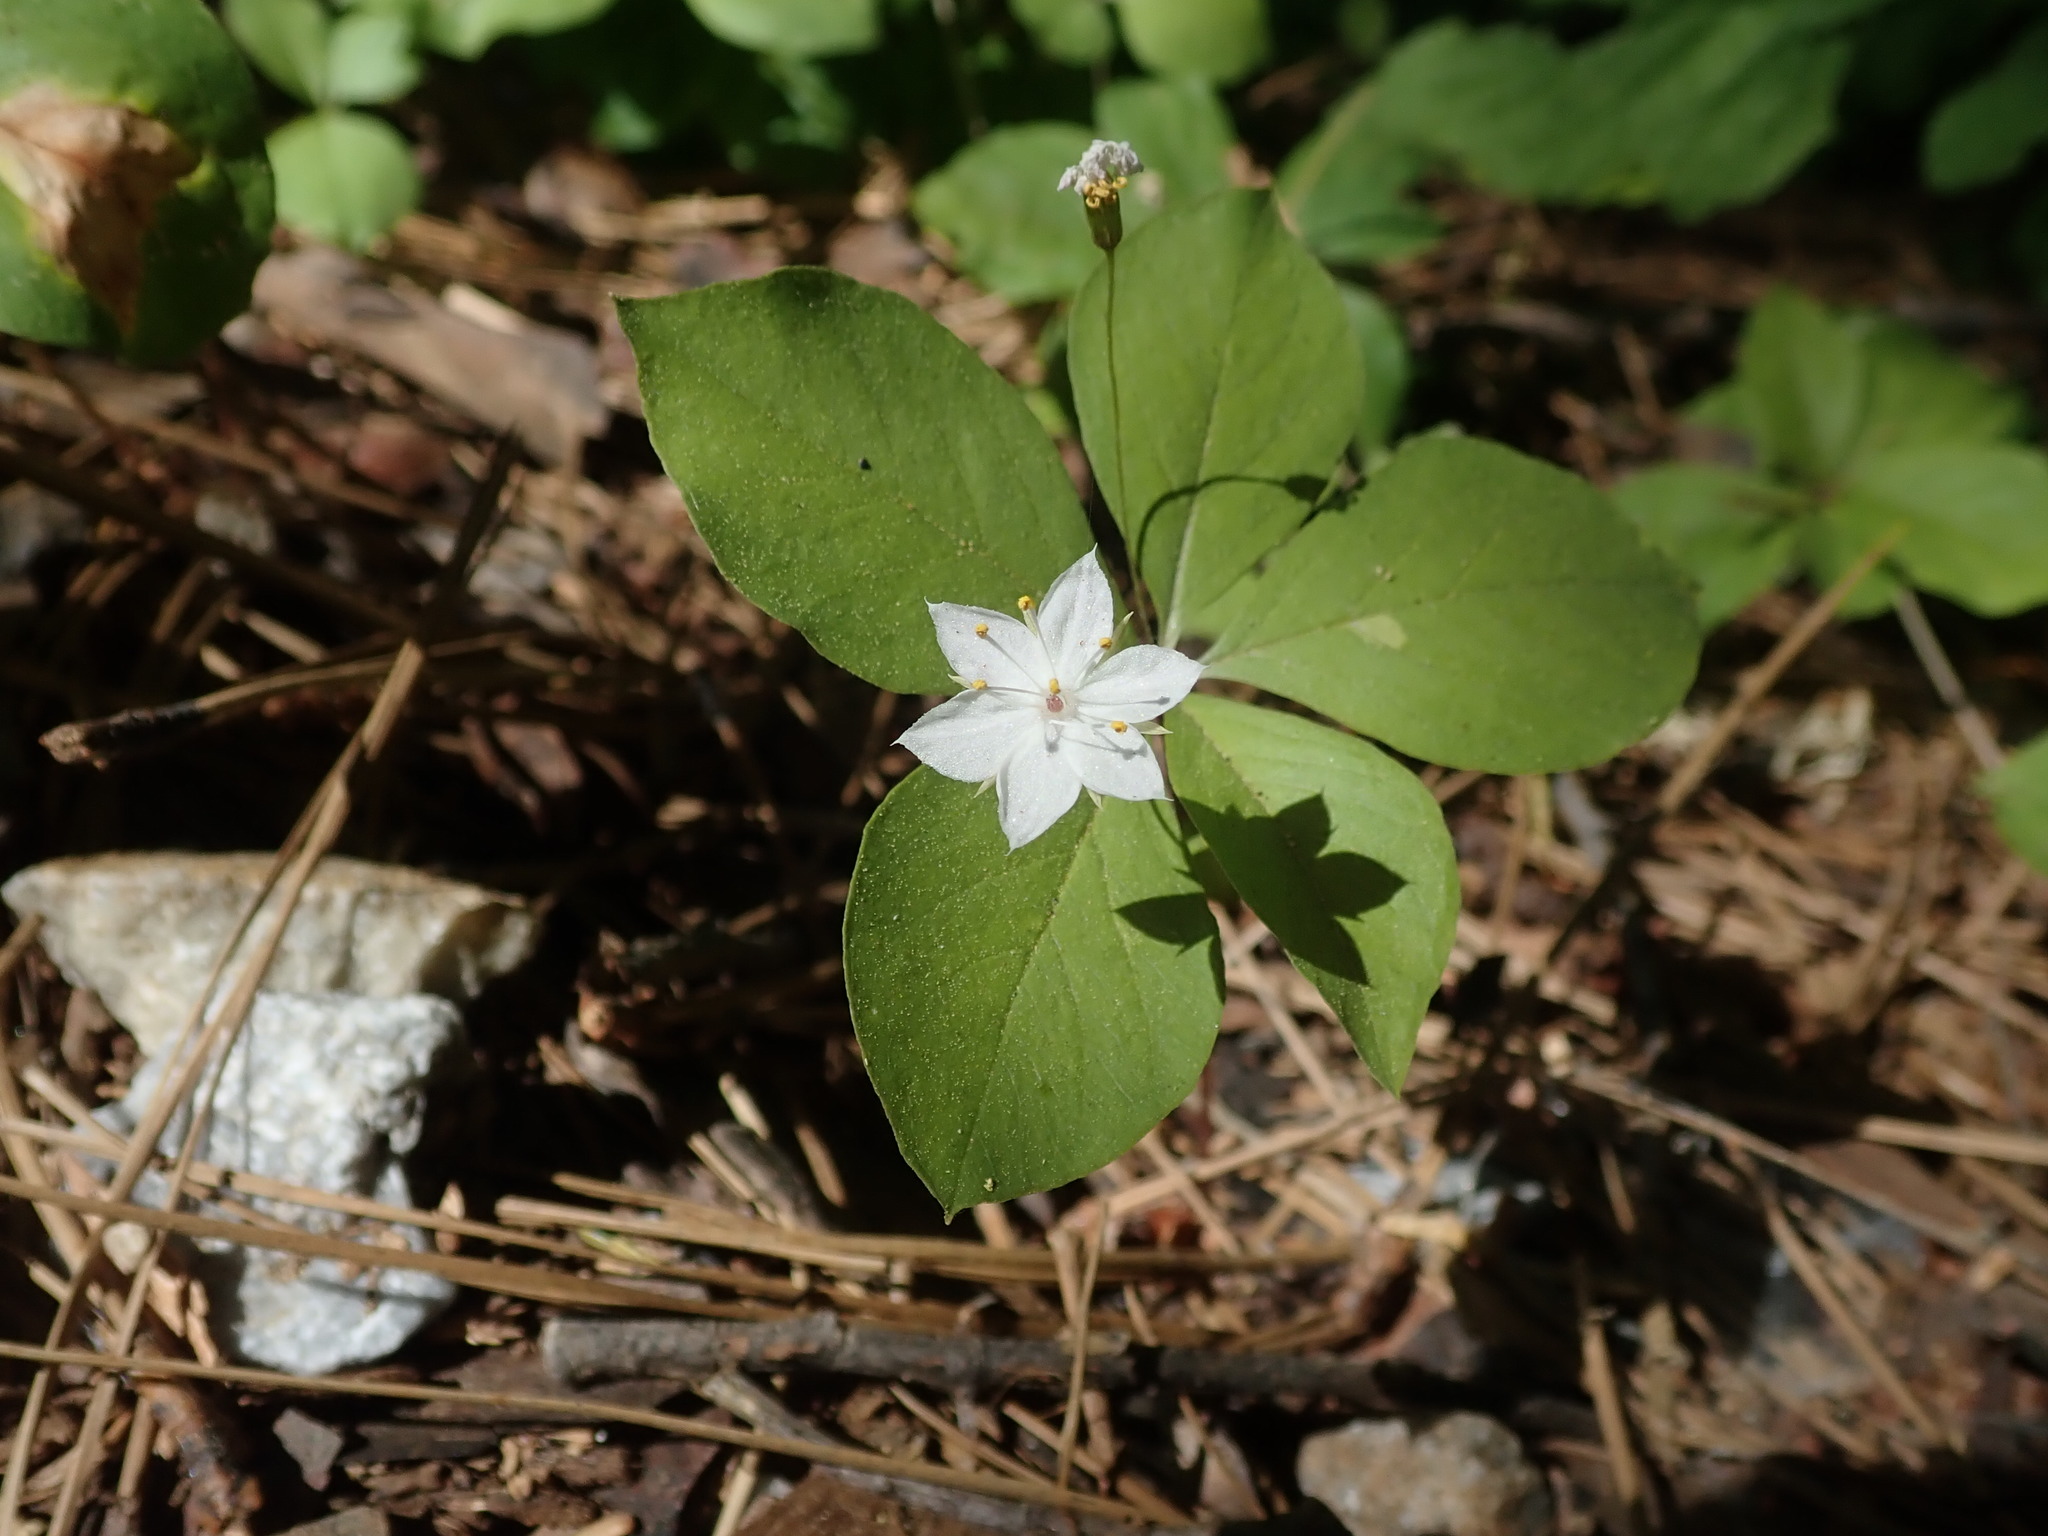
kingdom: Plantae
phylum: Tracheophyta
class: Magnoliopsida
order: Ericales
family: Primulaceae
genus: Lysimachia
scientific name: Lysimachia latifolia
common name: Pacific starflower
